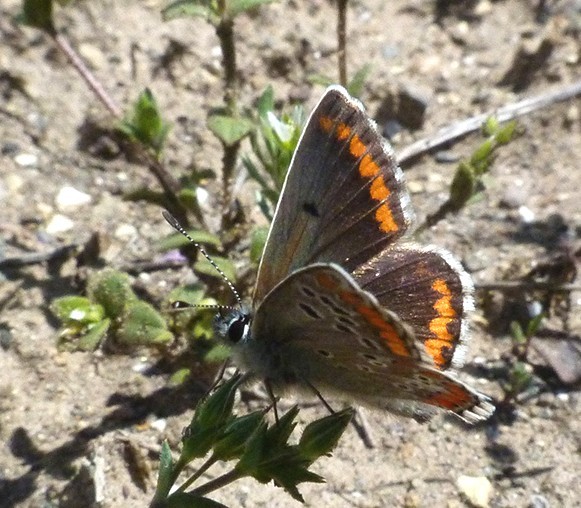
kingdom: Animalia
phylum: Arthropoda
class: Insecta
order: Lepidoptera
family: Lycaenidae
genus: Aricia
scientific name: Aricia cramera
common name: Eschscholtz´s brown  argus
